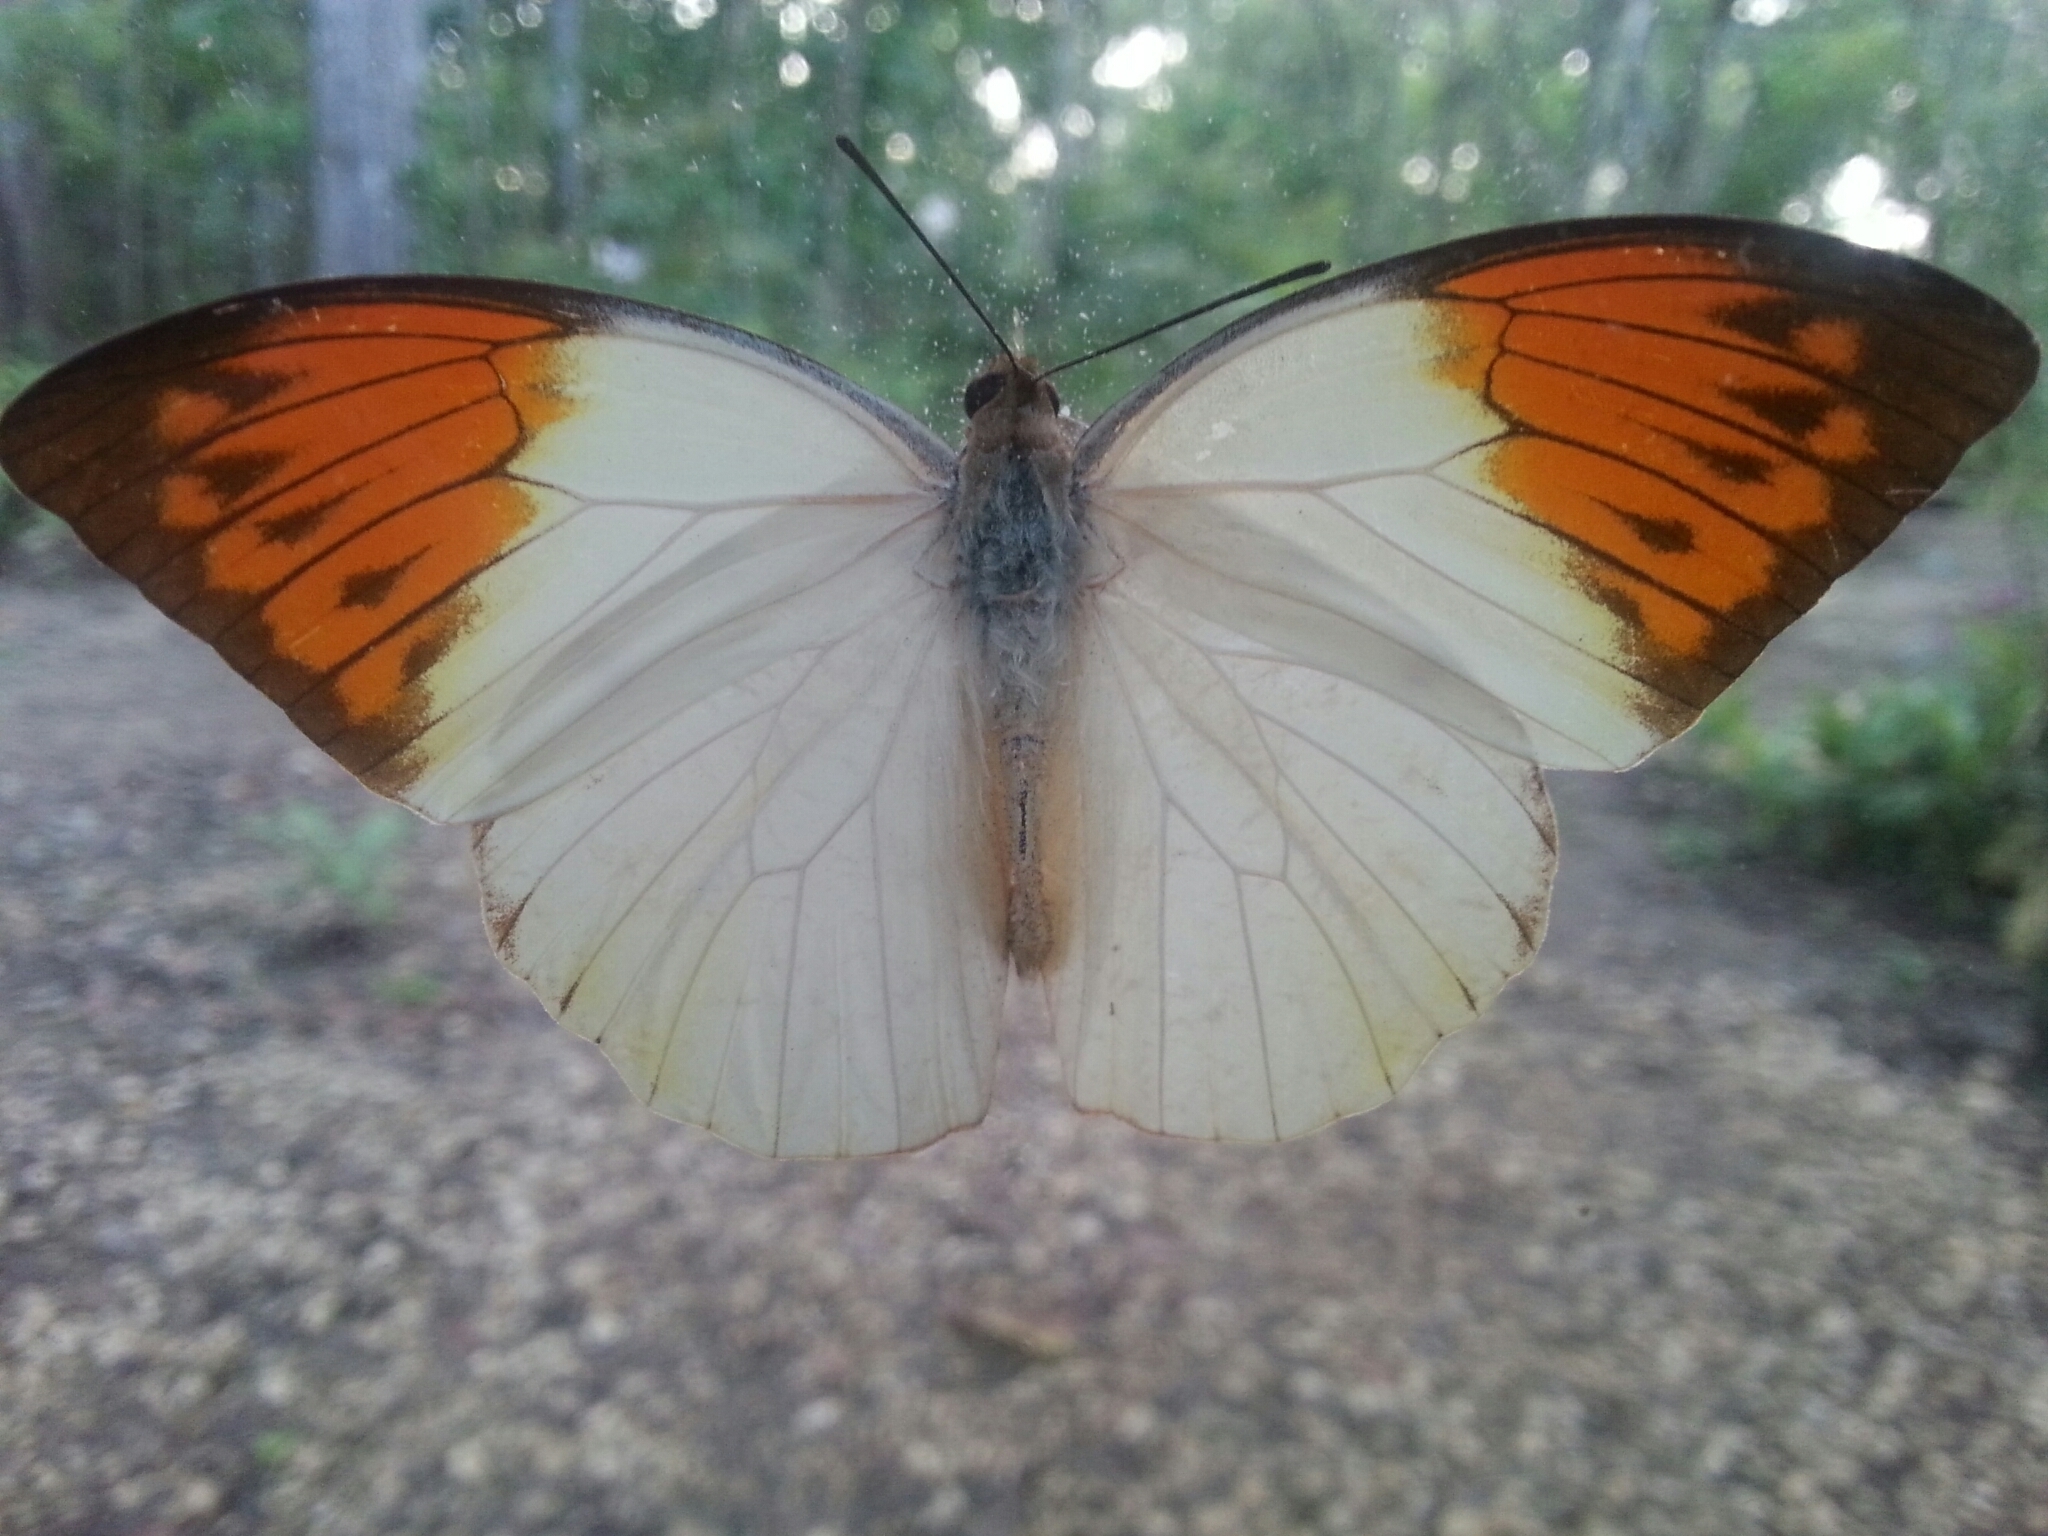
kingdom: Animalia
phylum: Arthropoda
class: Insecta
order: Lepidoptera
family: Pieridae
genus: Hebomoia
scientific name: Hebomoia glaucippe
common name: Great orange tip
